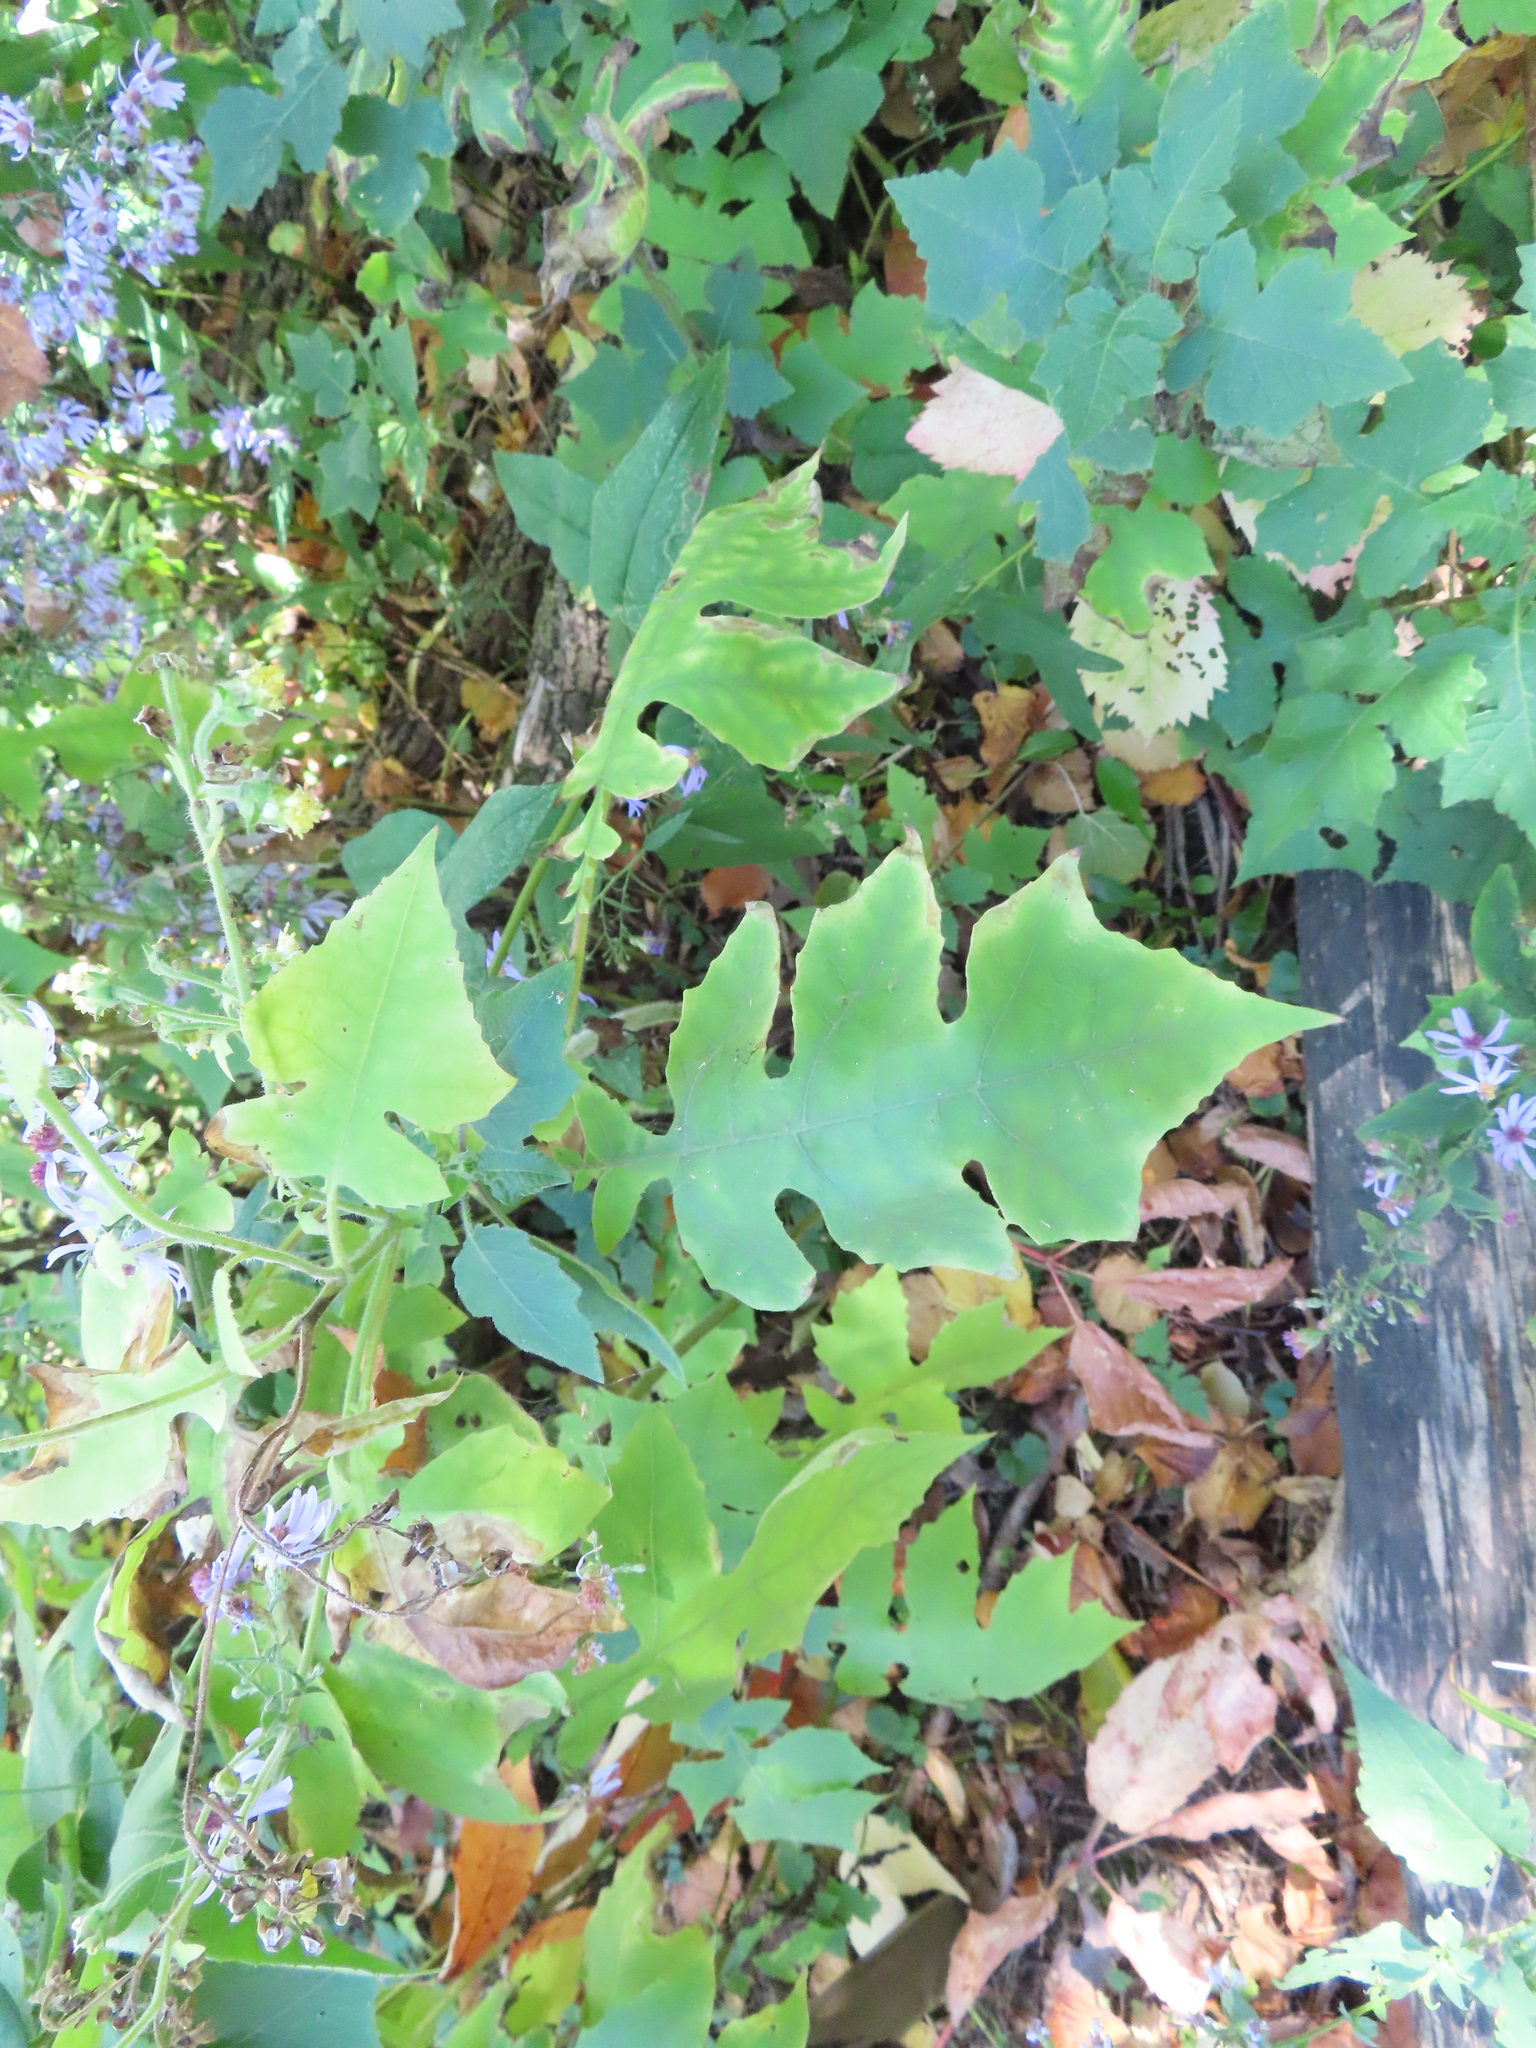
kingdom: Plantae
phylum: Tracheophyta
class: Magnoliopsida
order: Asterales
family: Asteraceae
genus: Polymnia
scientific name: Polymnia canadensis
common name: Pale-flowered leafcup
